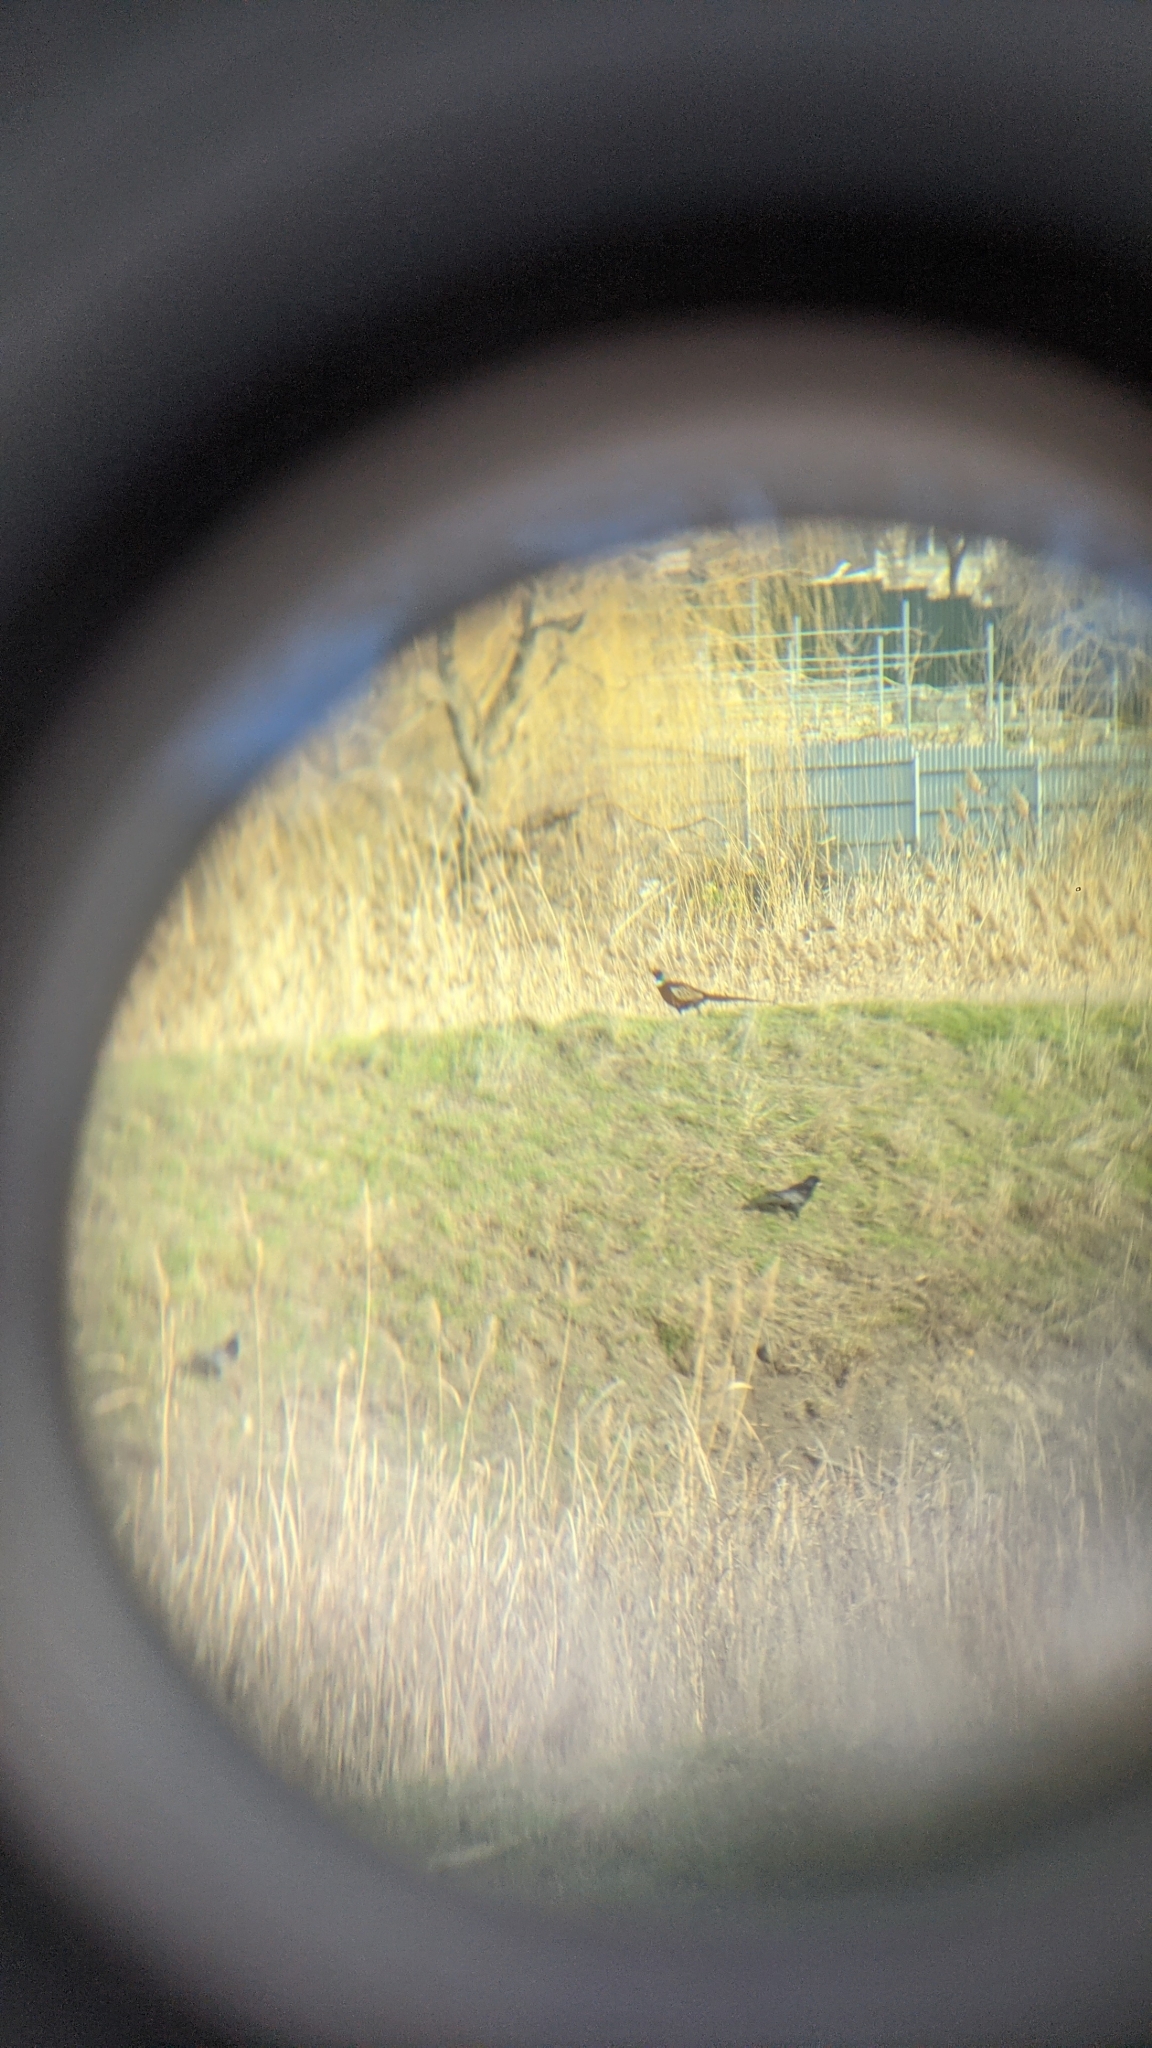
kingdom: Animalia
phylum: Chordata
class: Aves
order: Galliformes
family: Phasianidae
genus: Phasianus
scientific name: Phasianus colchicus
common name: Common pheasant
